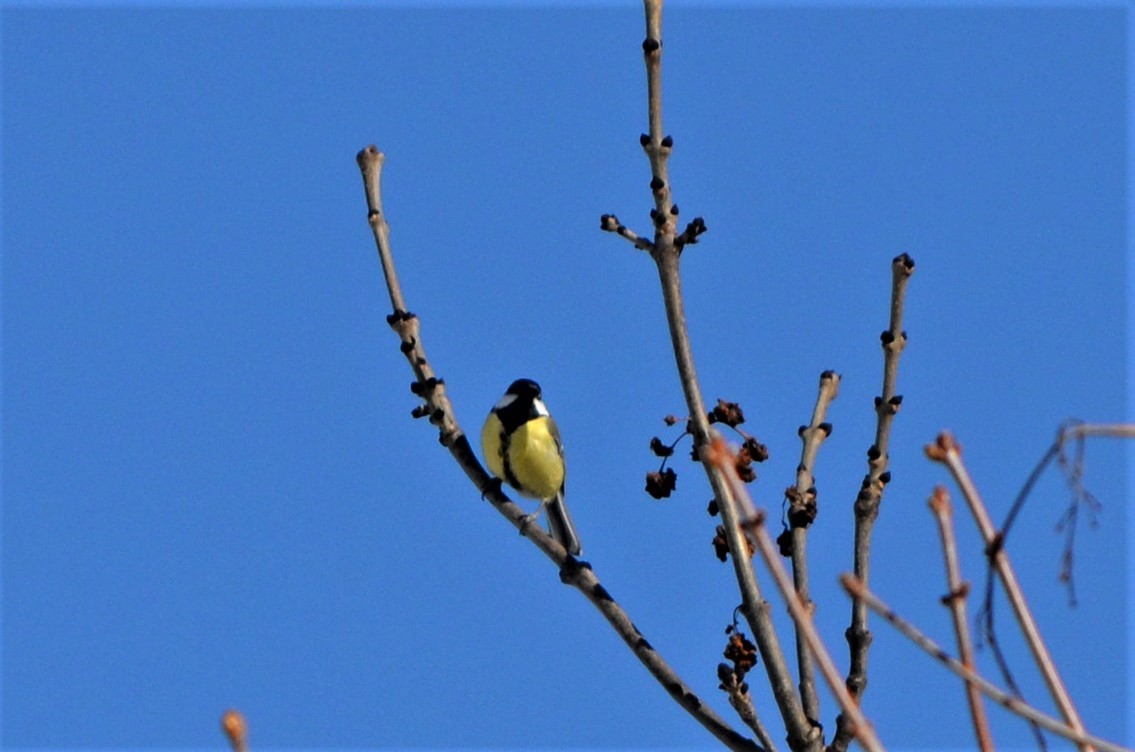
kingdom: Animalia
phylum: Chordata
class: Aves
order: Passeriformes
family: Paridae
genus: Parus
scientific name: Parus major
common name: Great tit
